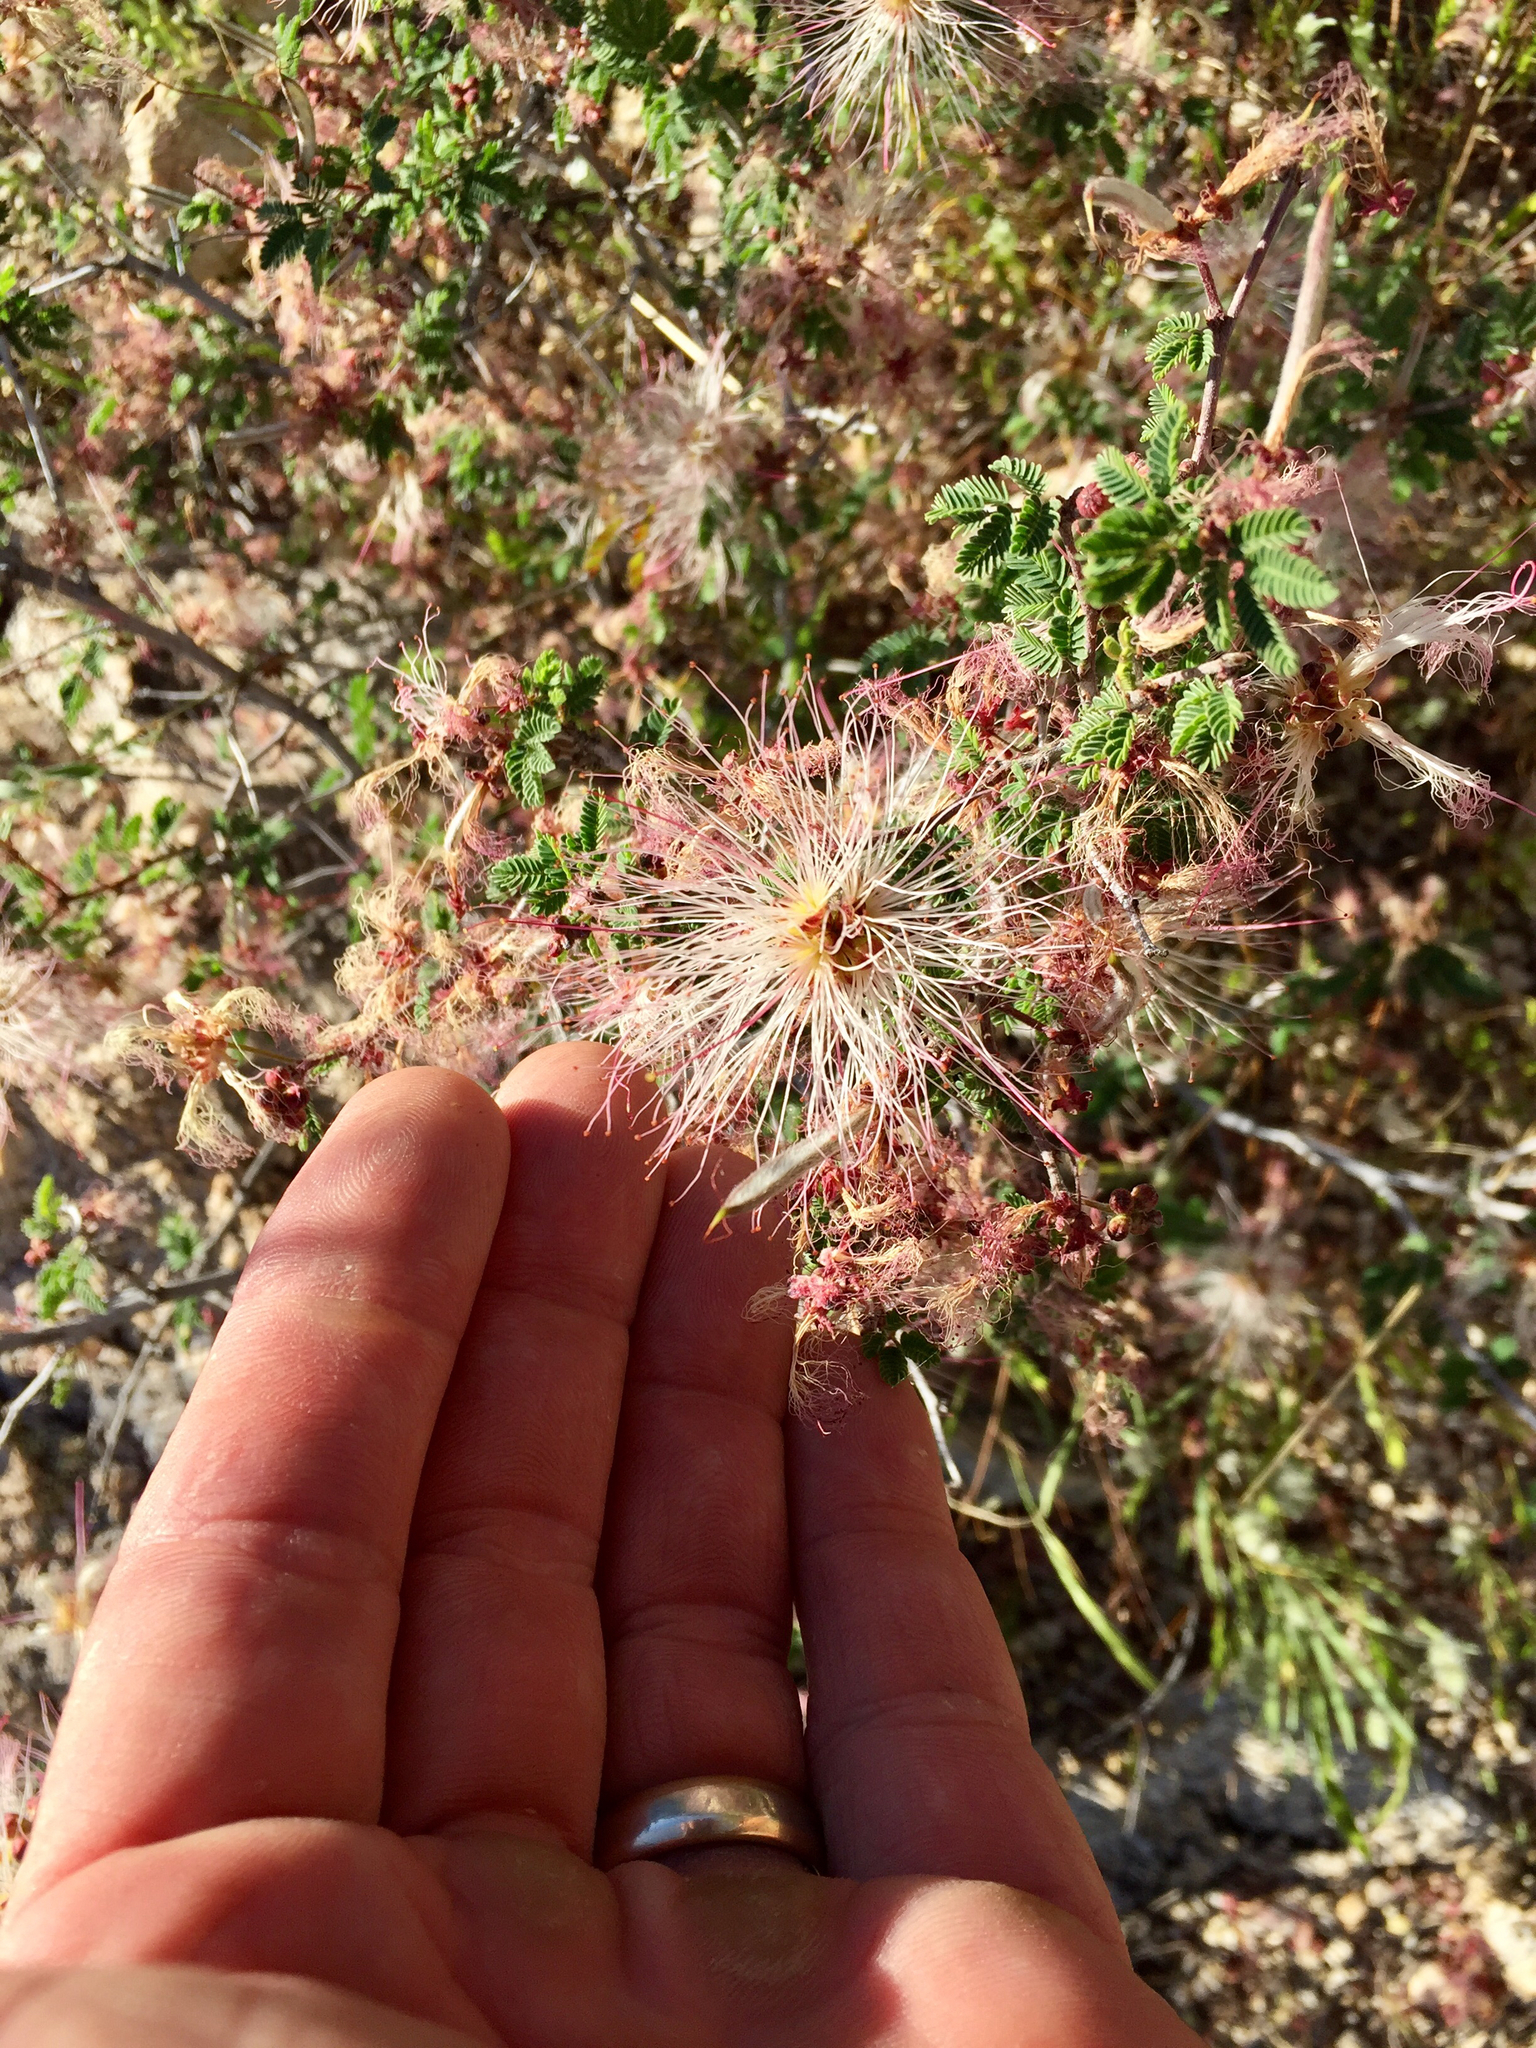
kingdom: Plantae
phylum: Tracheophyta
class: Magnoliopsida
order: Fabales
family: Fabaceae
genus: Calliandra
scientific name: Calliandra eriophylla
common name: Fairy-duster
